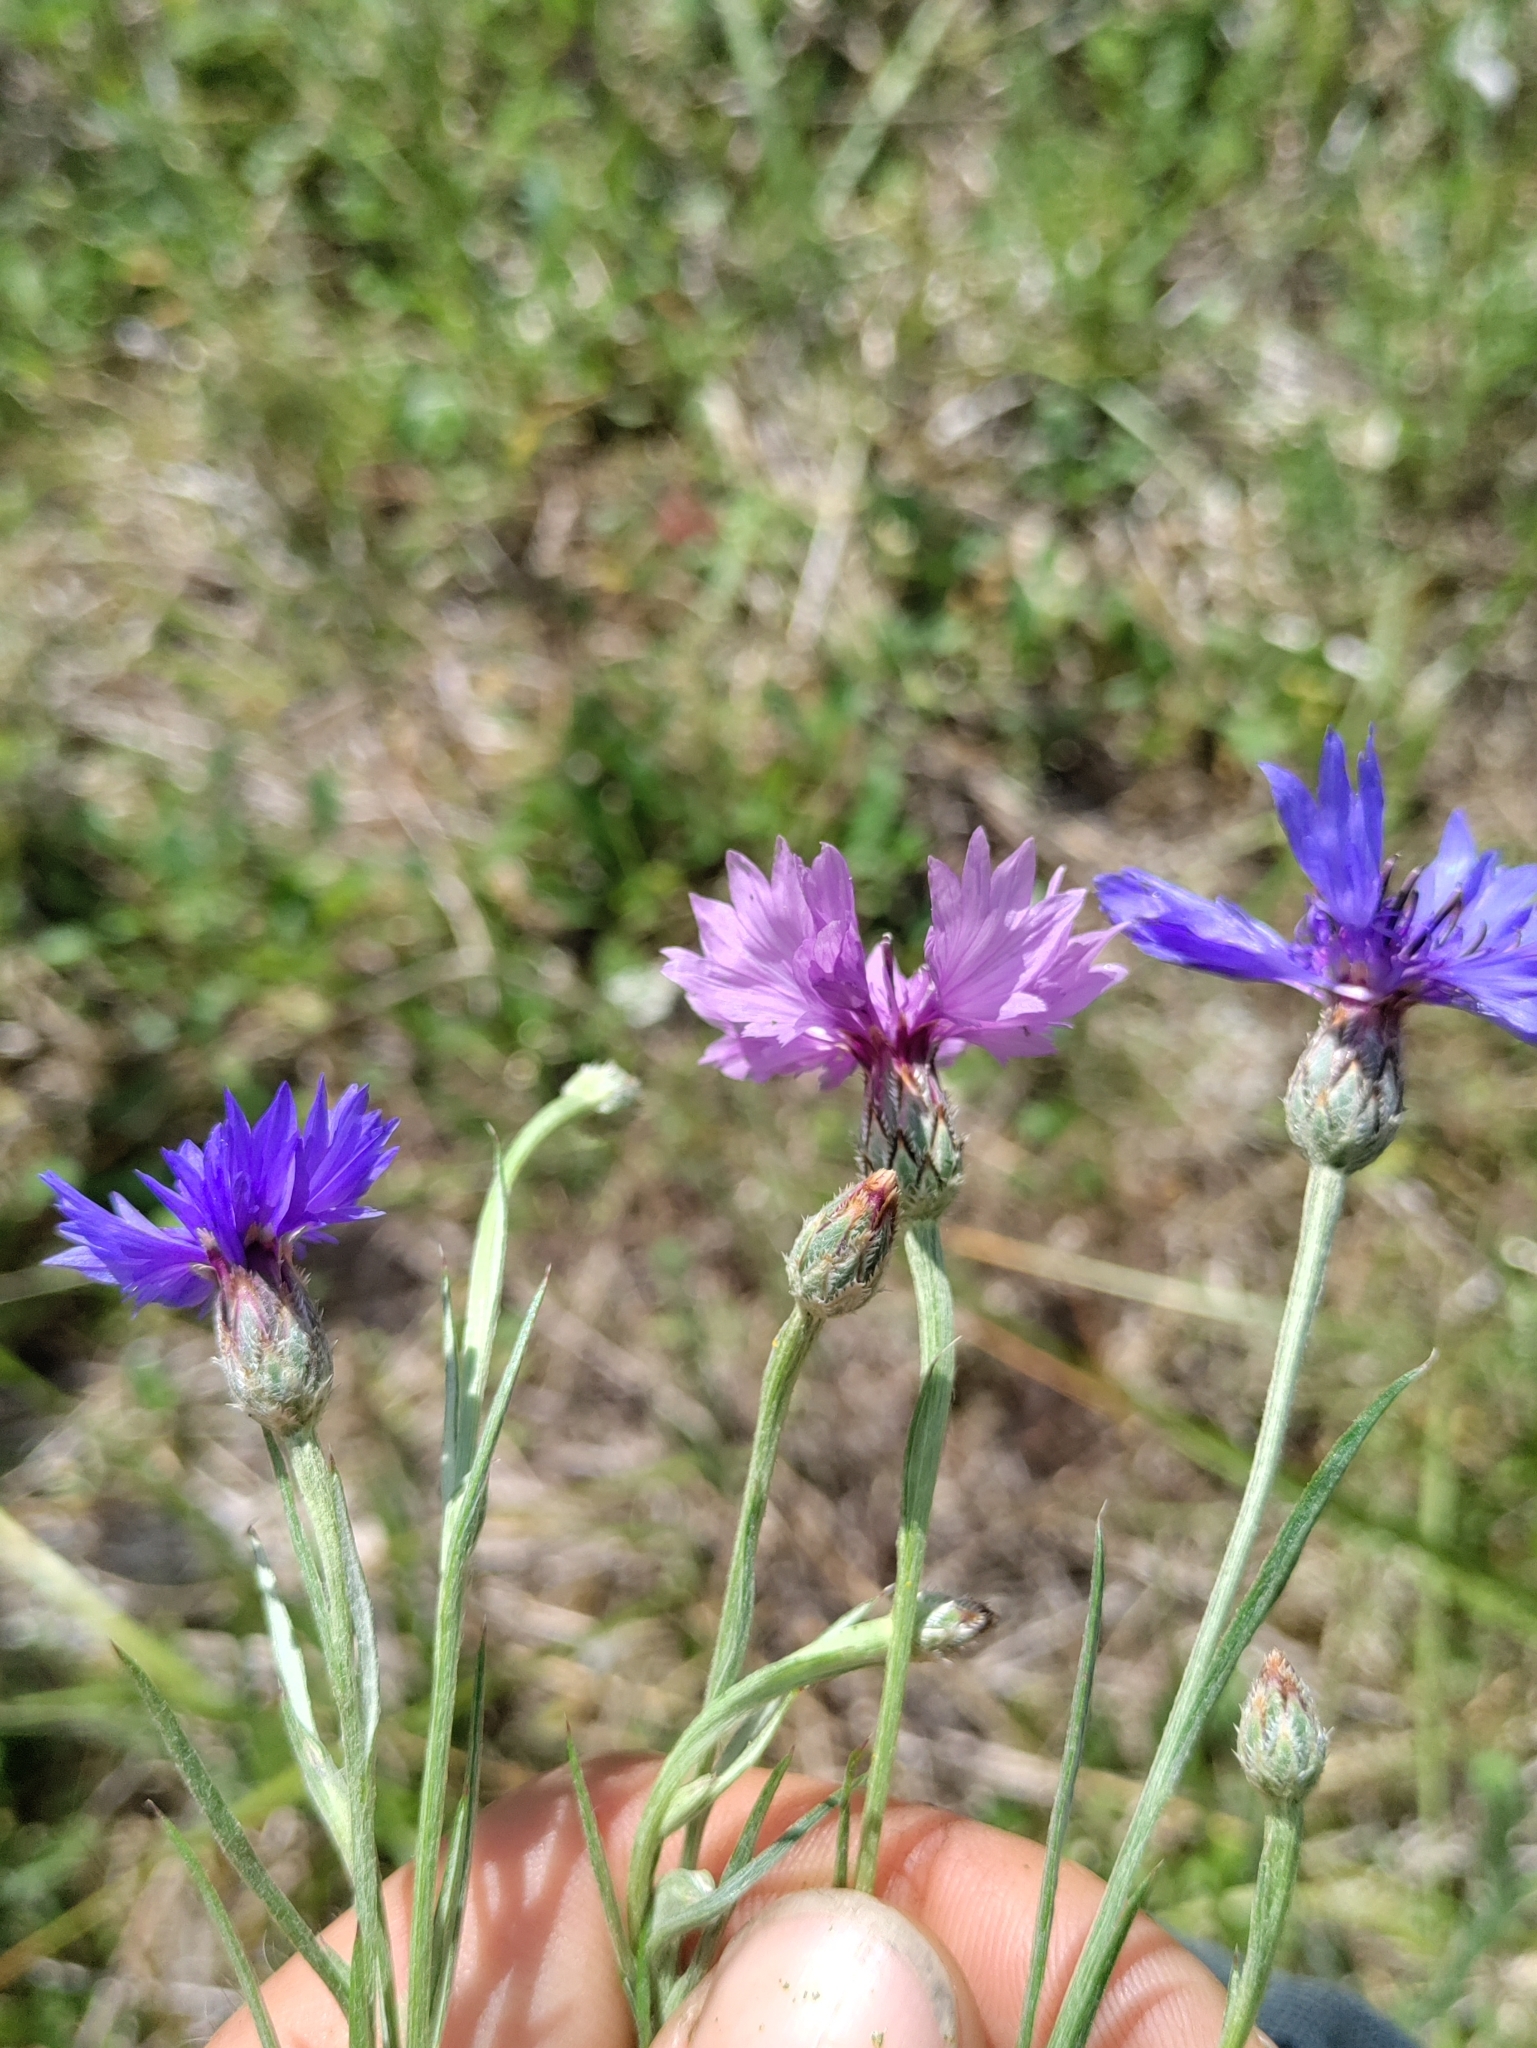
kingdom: Plantae
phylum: Tracheophyta
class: Magnoliopsida
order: Asterales
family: Asteraceae
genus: Centaurea
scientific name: Centaurea cyanus
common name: Cornflower
